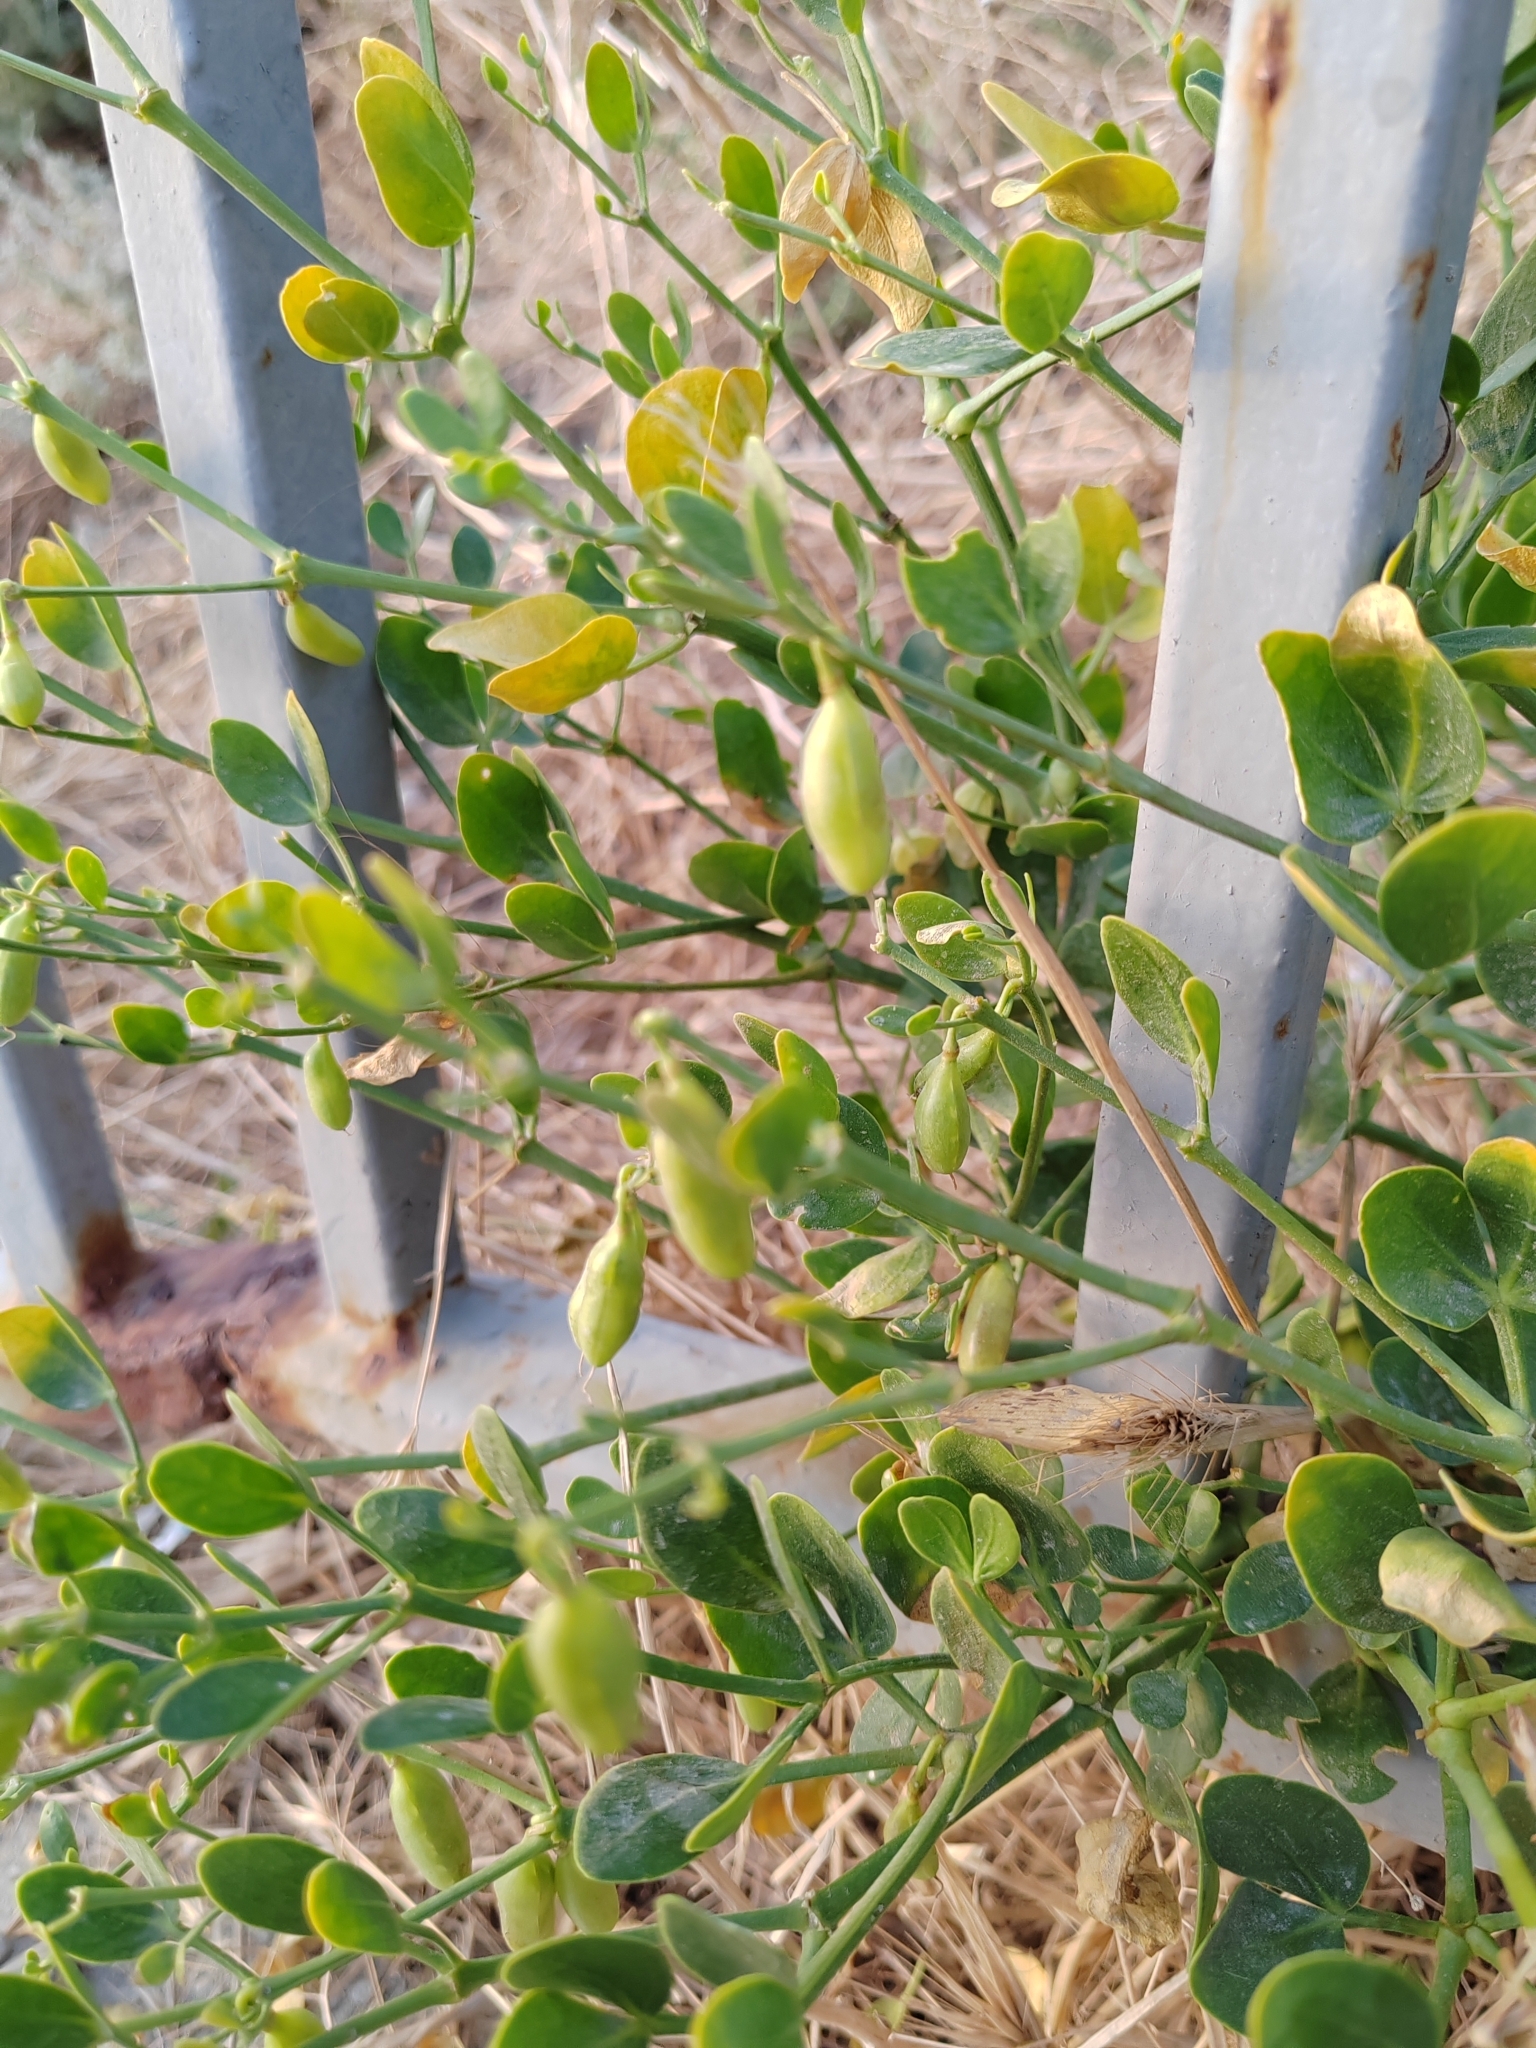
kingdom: Plantae
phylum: Tracheophyta
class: Magnoliopsida
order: Zygophyllales
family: Zygophyllaceae
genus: Zygophyllum
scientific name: Zygophyllum fabago
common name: Syrian beancaper
